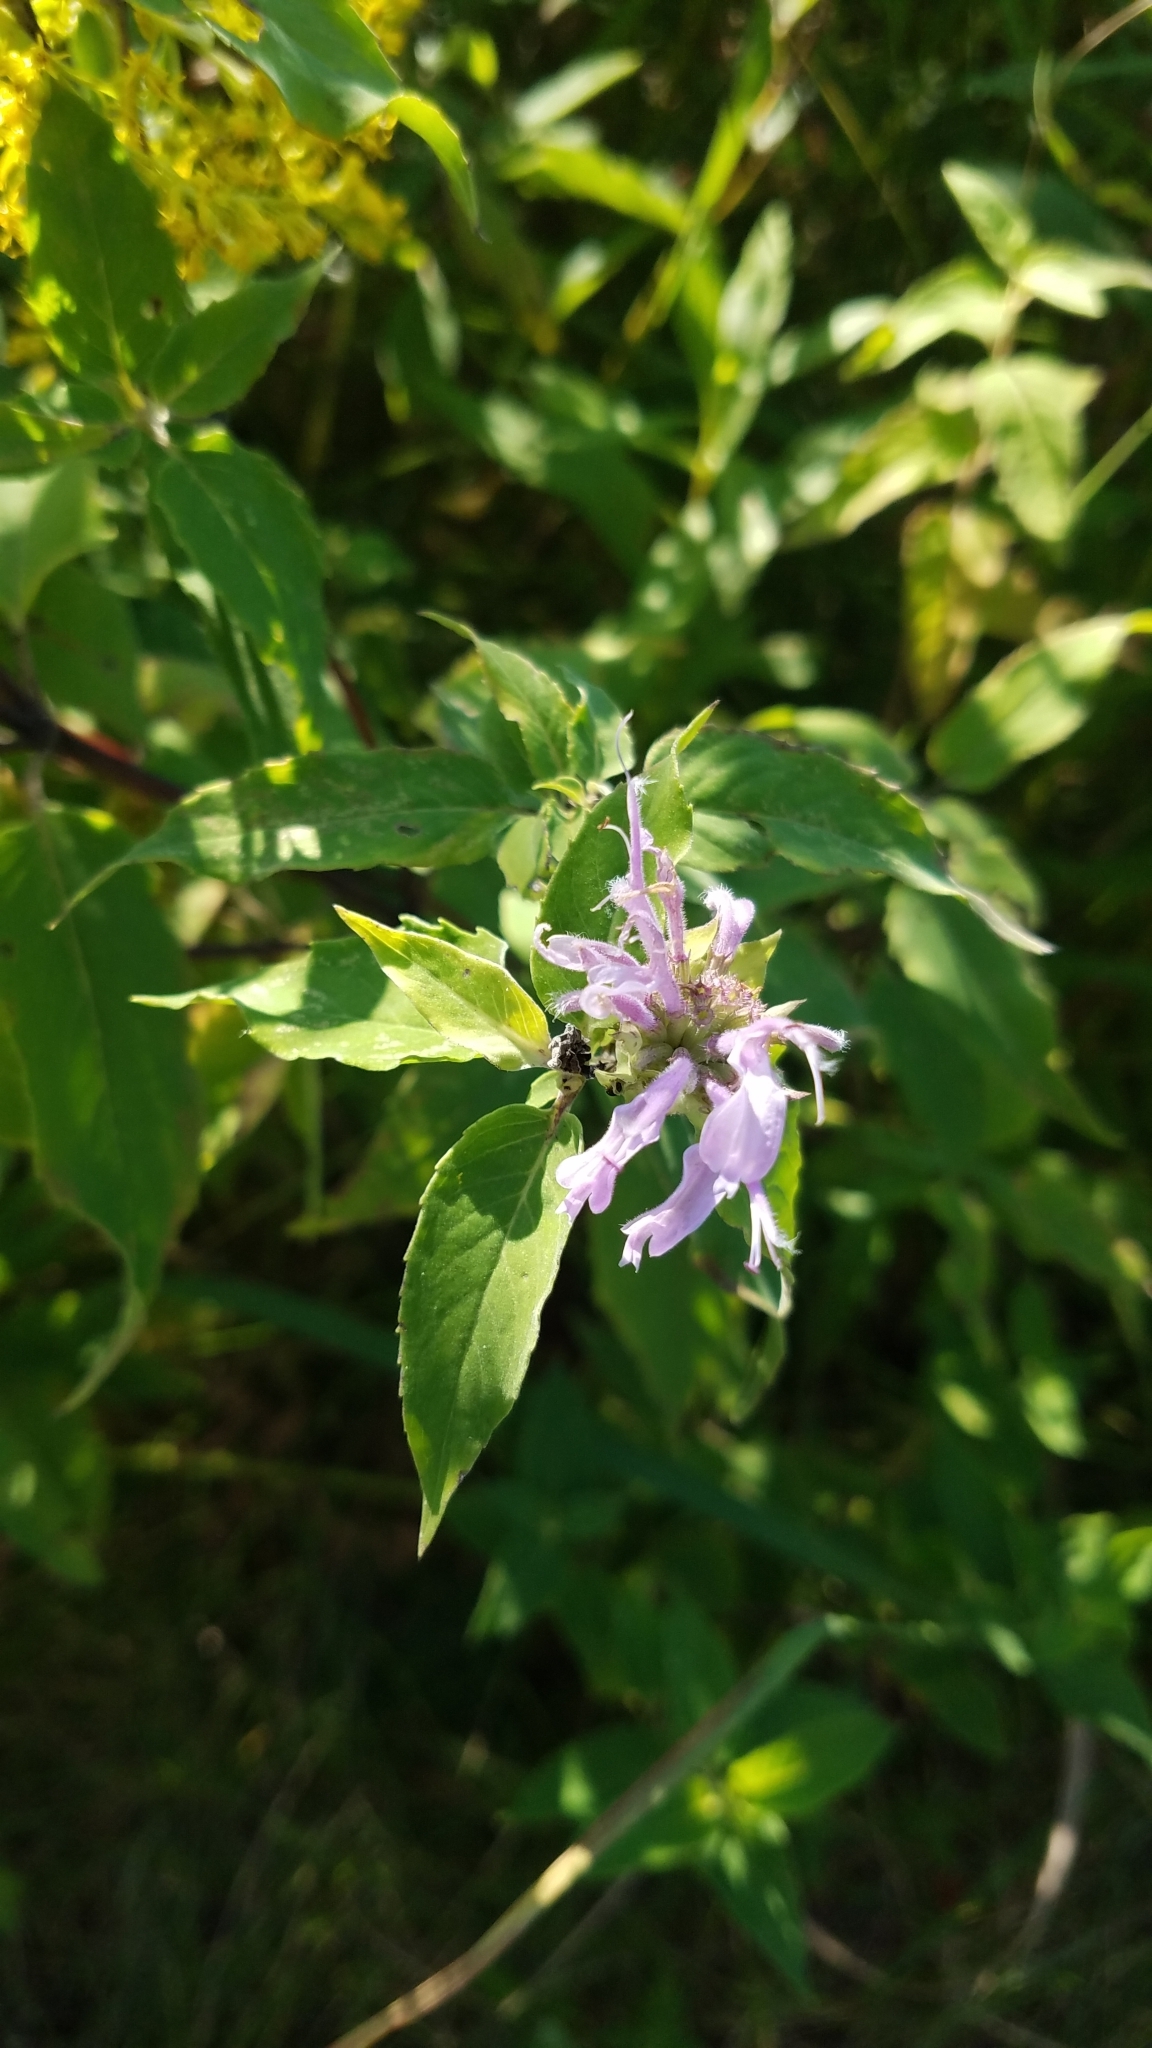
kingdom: Plantae
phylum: Tracheophyta
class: Magnoliopsida
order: Lamiales
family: Lamiaceae
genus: Monarda
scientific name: Monarda fistulosa
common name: Purple beebalm
